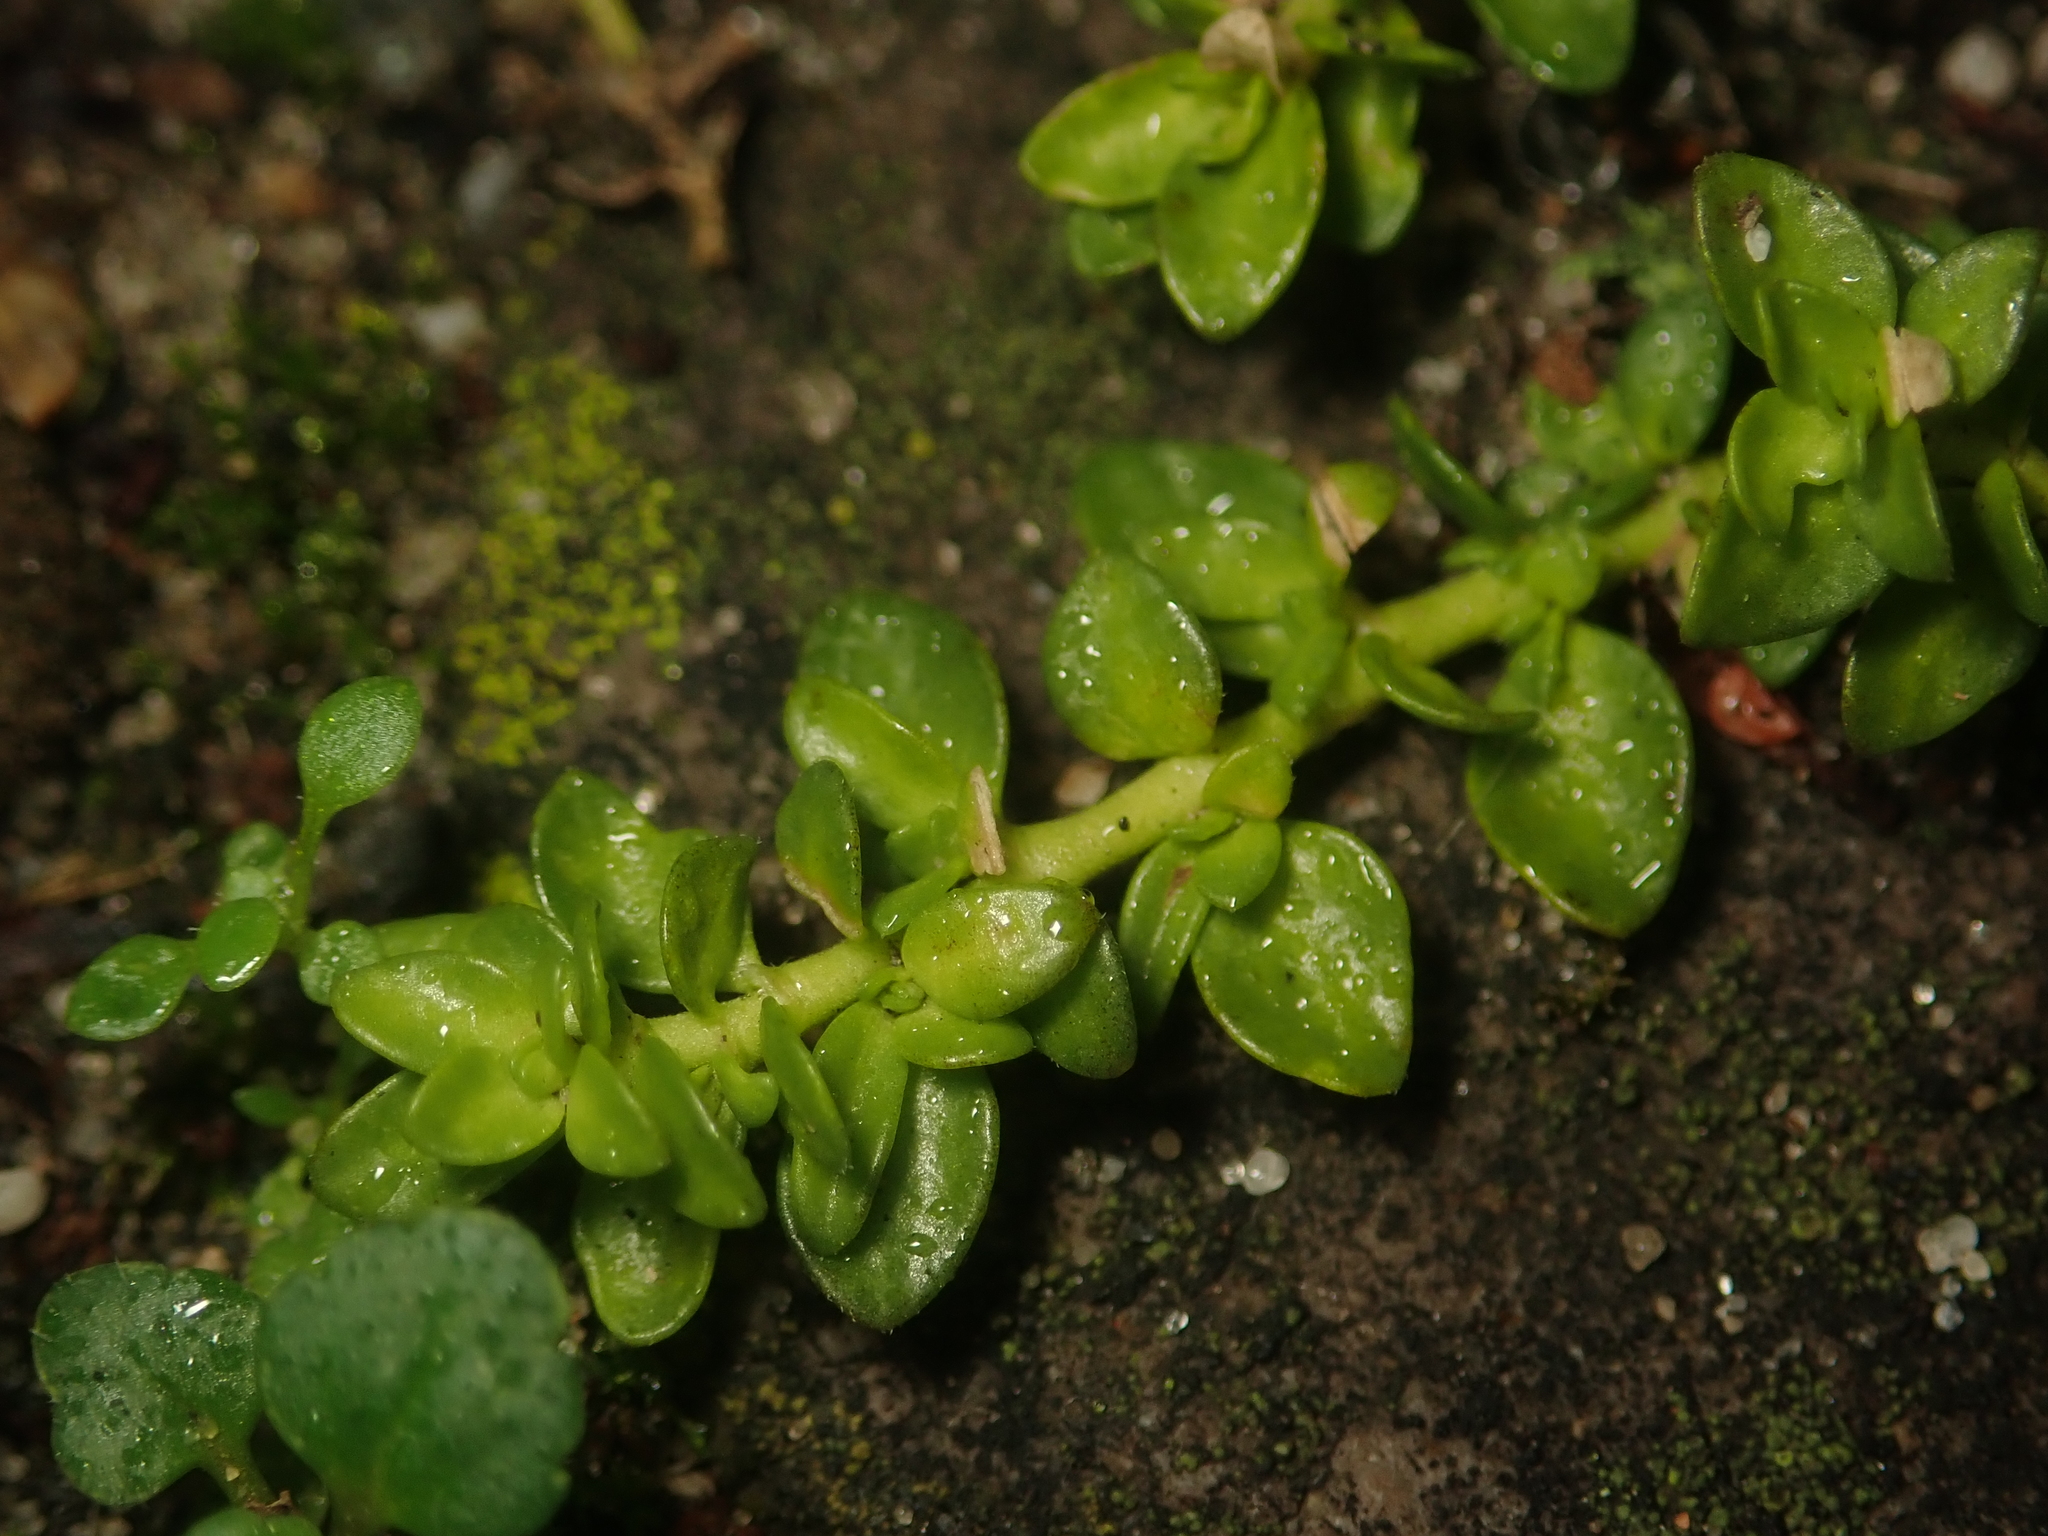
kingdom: Plantae
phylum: Tracheophyta
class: Magnoliopsida
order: Caryophyllales
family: Caryophyllaceae
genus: Herniaria
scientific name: Herniaria glabra
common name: Smooth rupturewort
